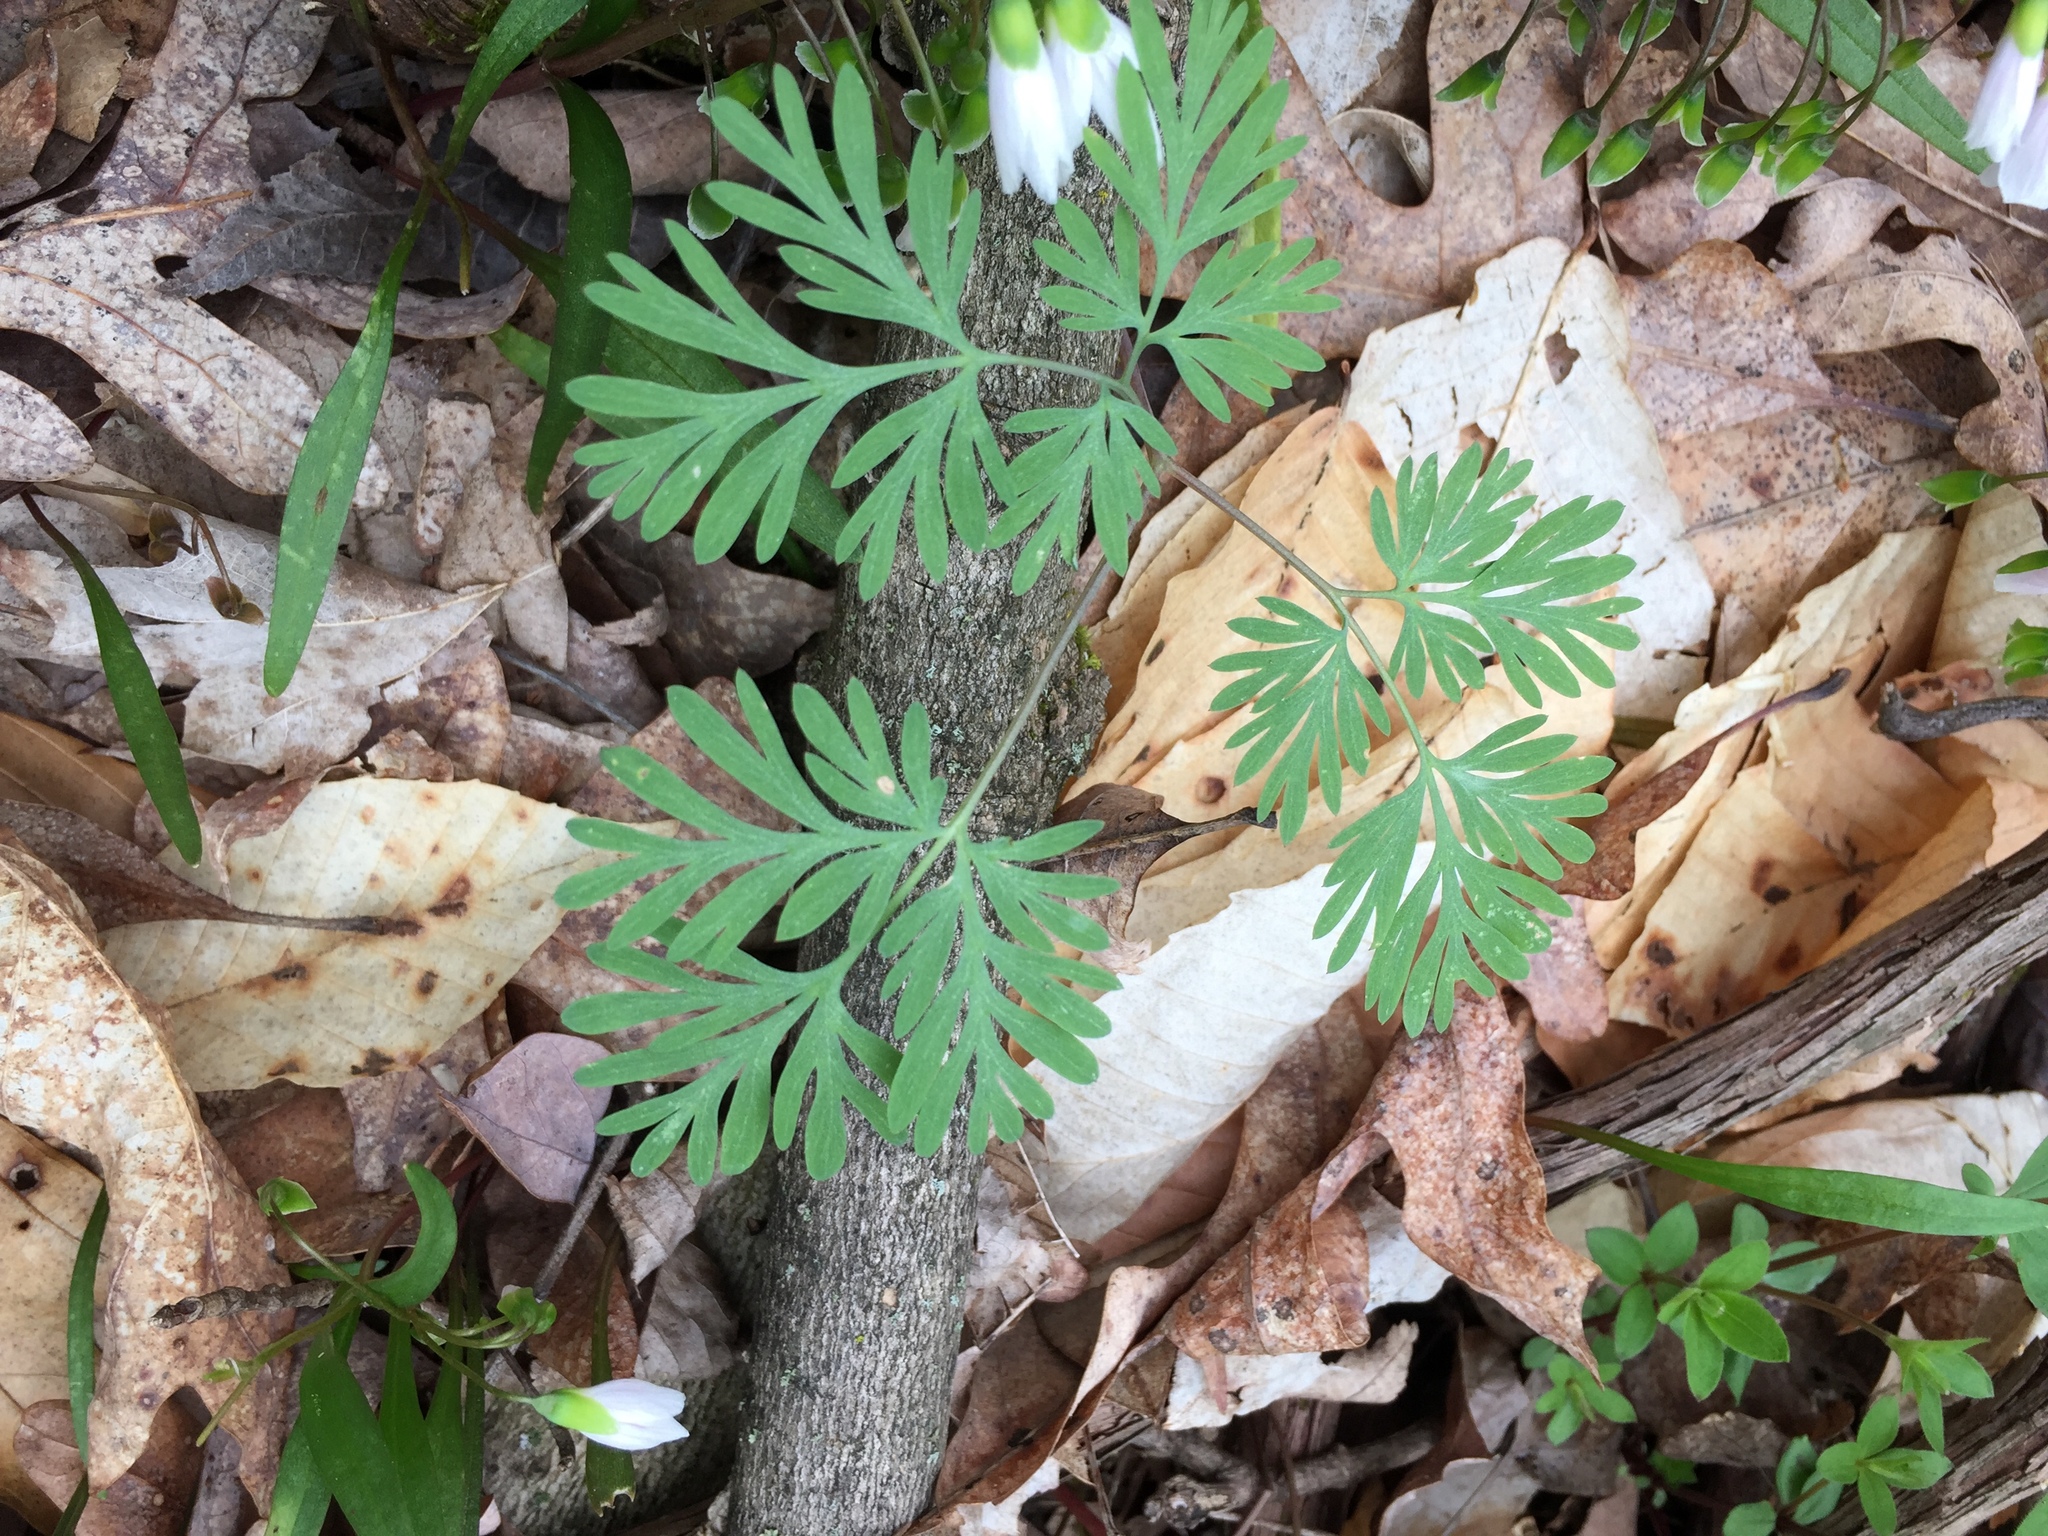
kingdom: Plantae
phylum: Tracheophyta
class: Magnoliopsida
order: Ranunculales
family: Papaveraceae
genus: Dicentra
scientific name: Dicentra cucullaria
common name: Dutchman's breeches
